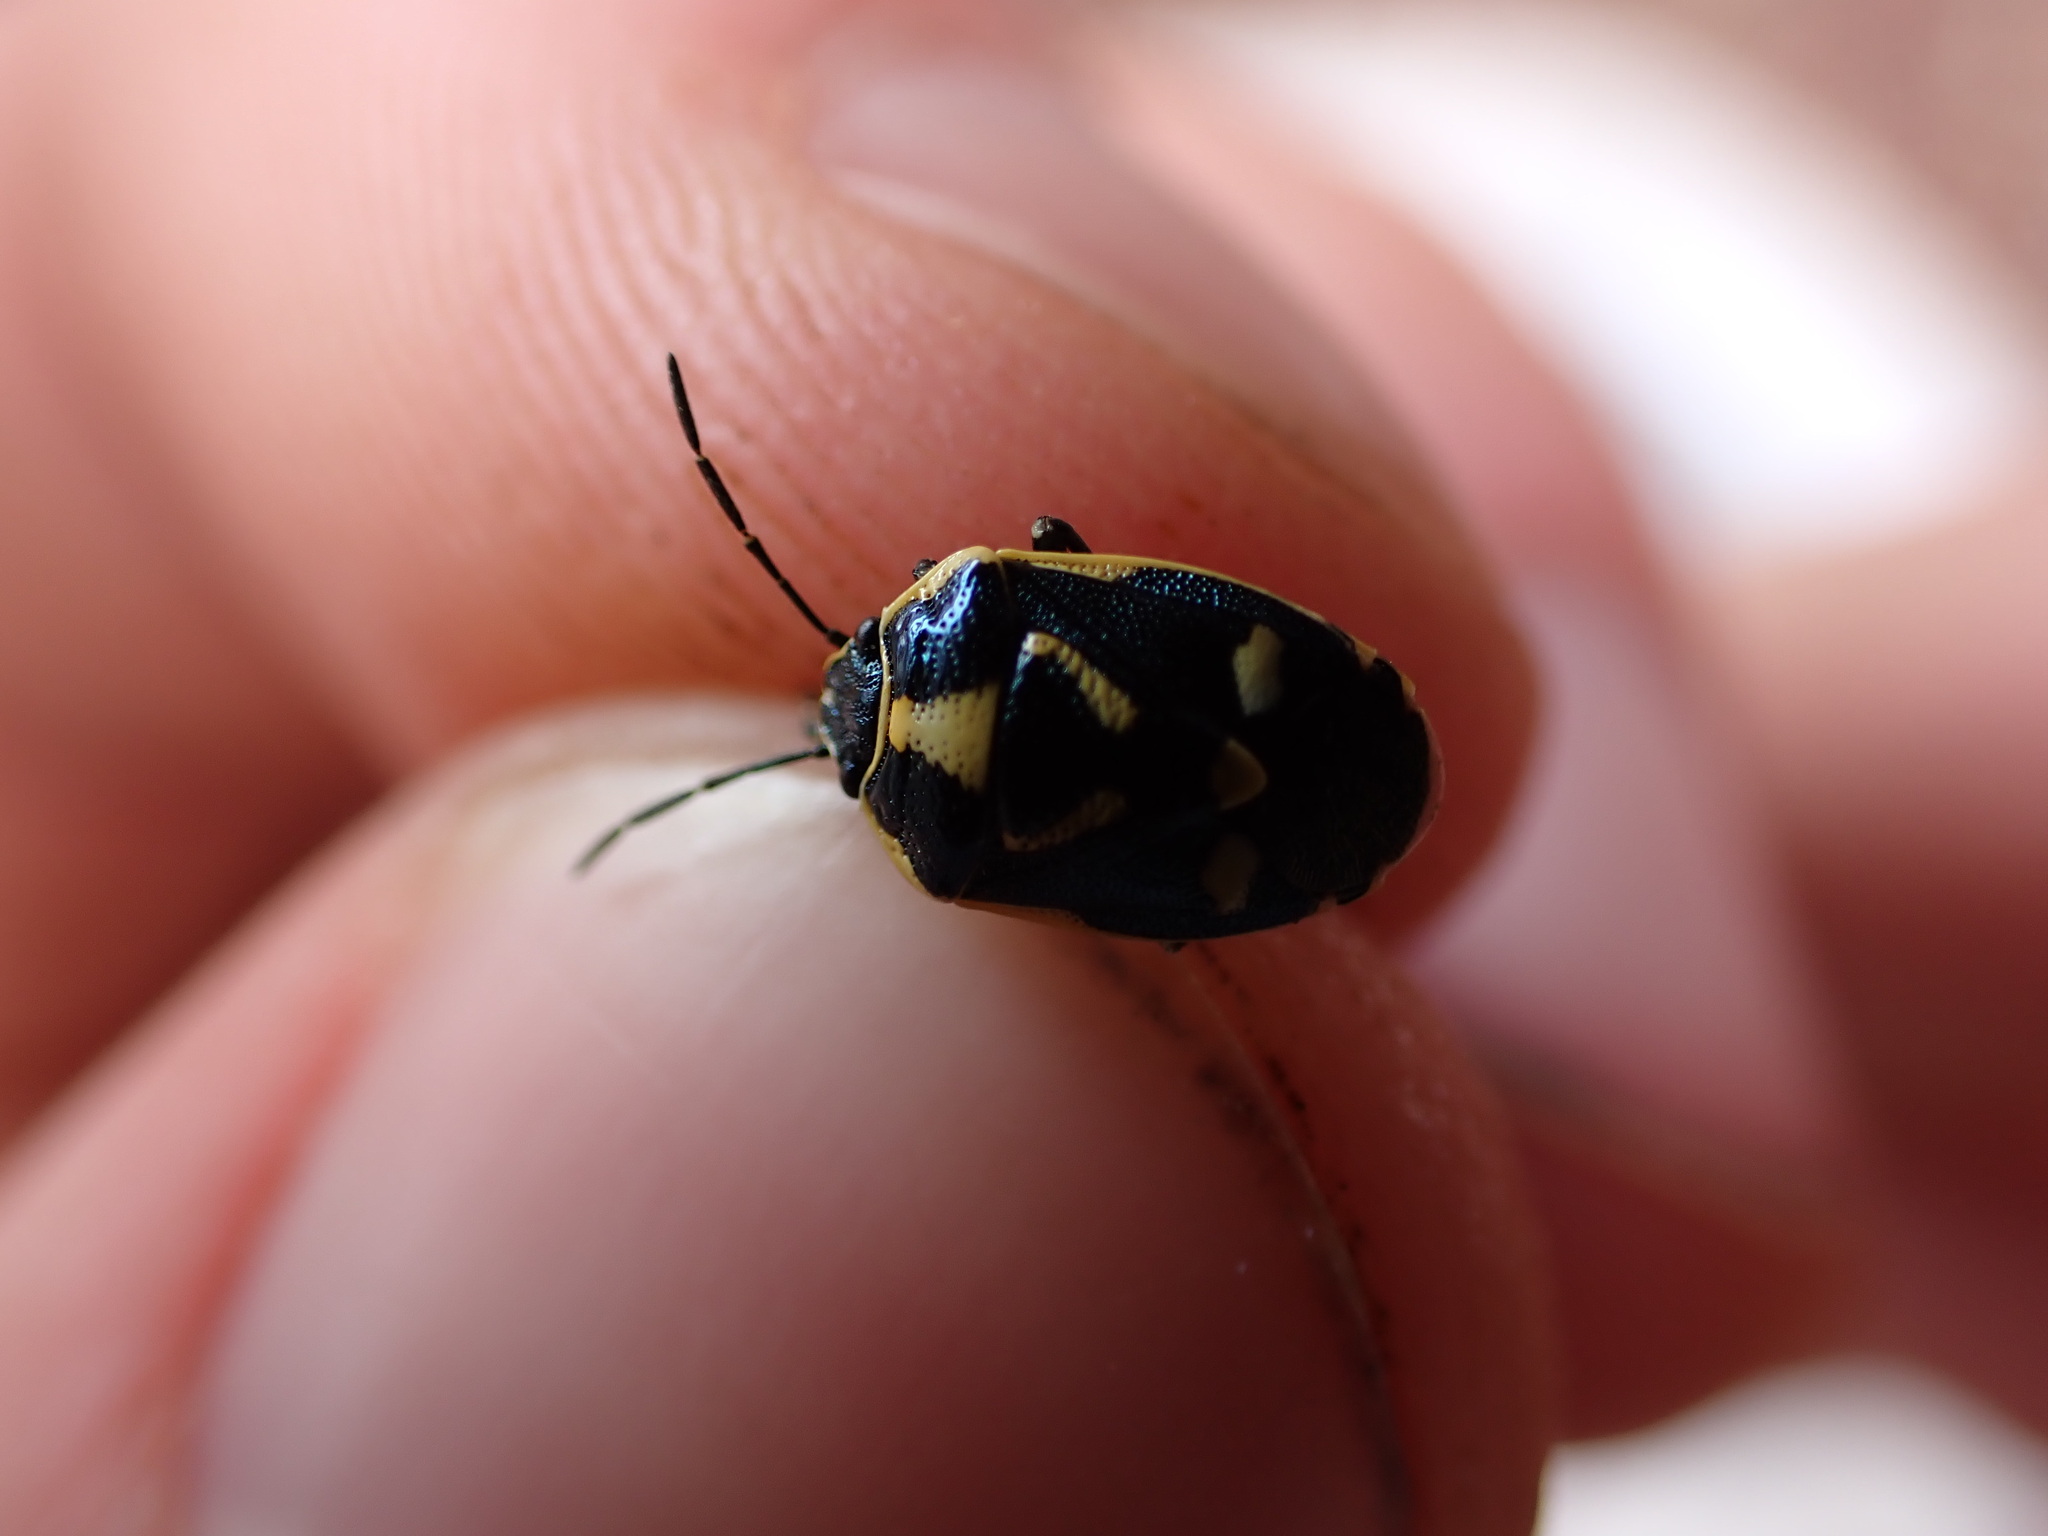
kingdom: Animalia
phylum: Arthropoda
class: Insecta
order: Hemiptera
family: Pentatomidae
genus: Eurydema
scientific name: Eurydema oleracea
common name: Cabbage bug
